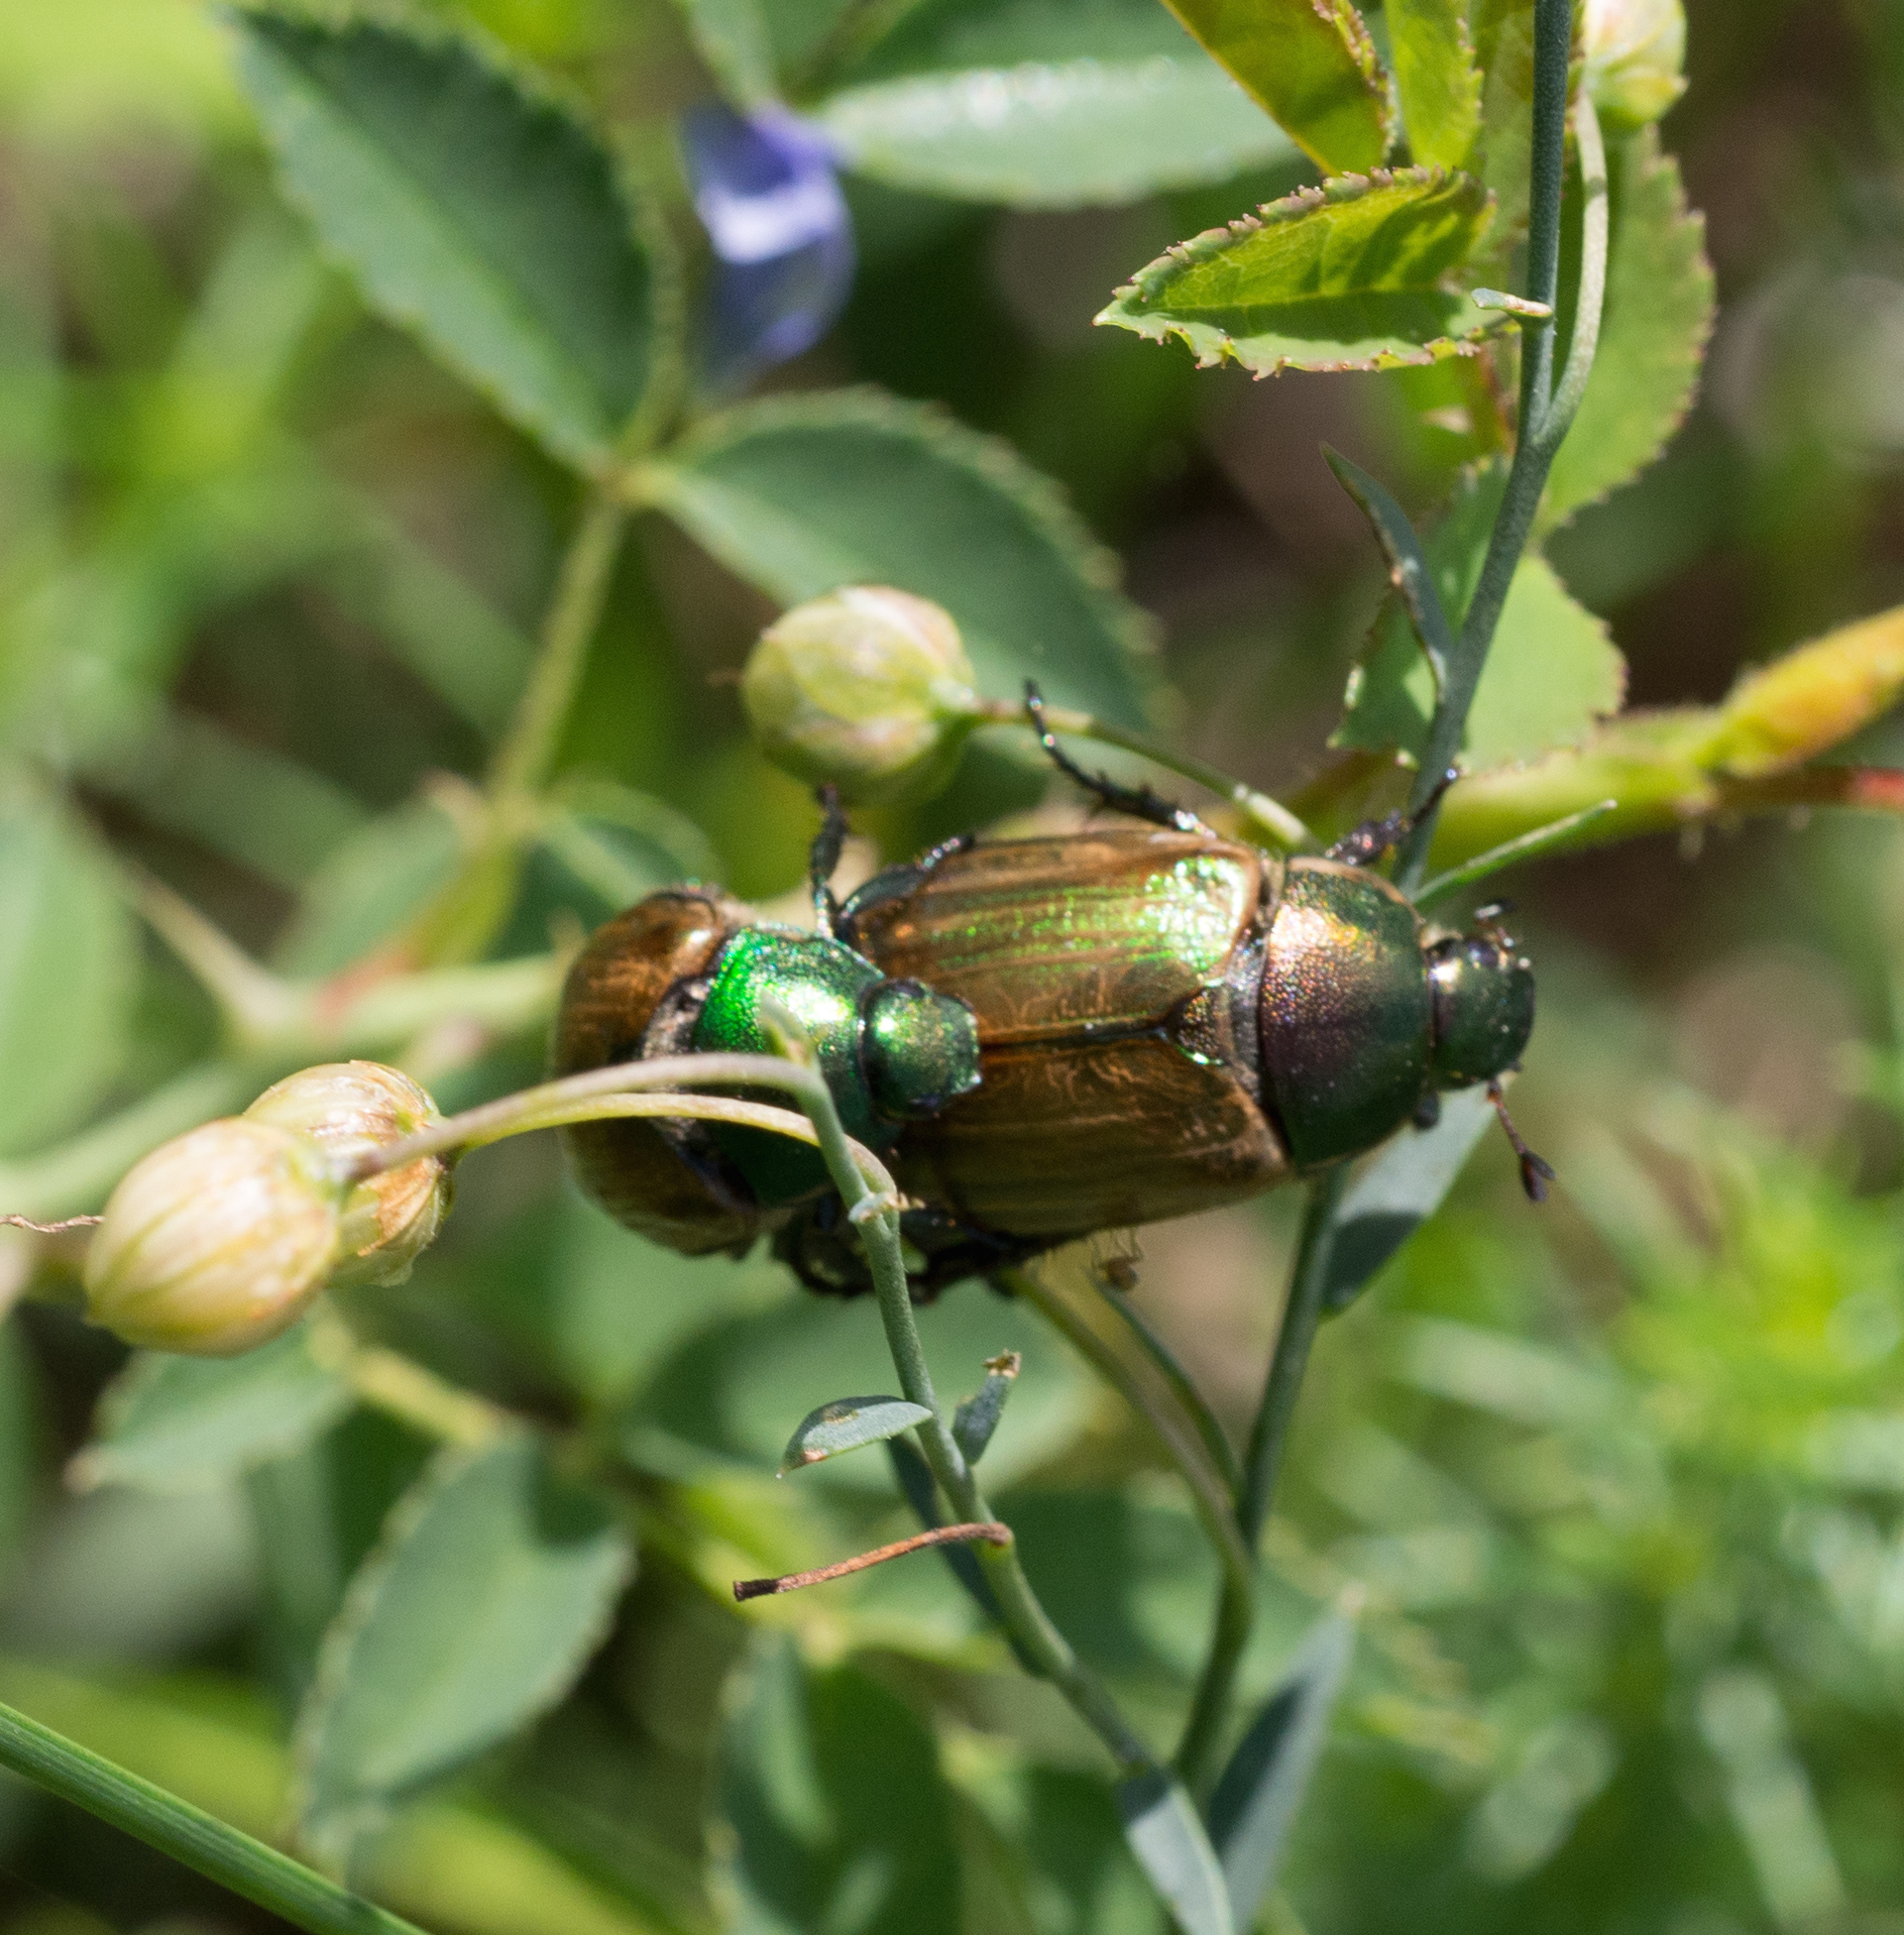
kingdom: Animalia
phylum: Arthropoda
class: Insecta
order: Coleoptera
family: Scarabaeidae
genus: Anomala
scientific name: Anomala dubia
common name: Dune chafer
